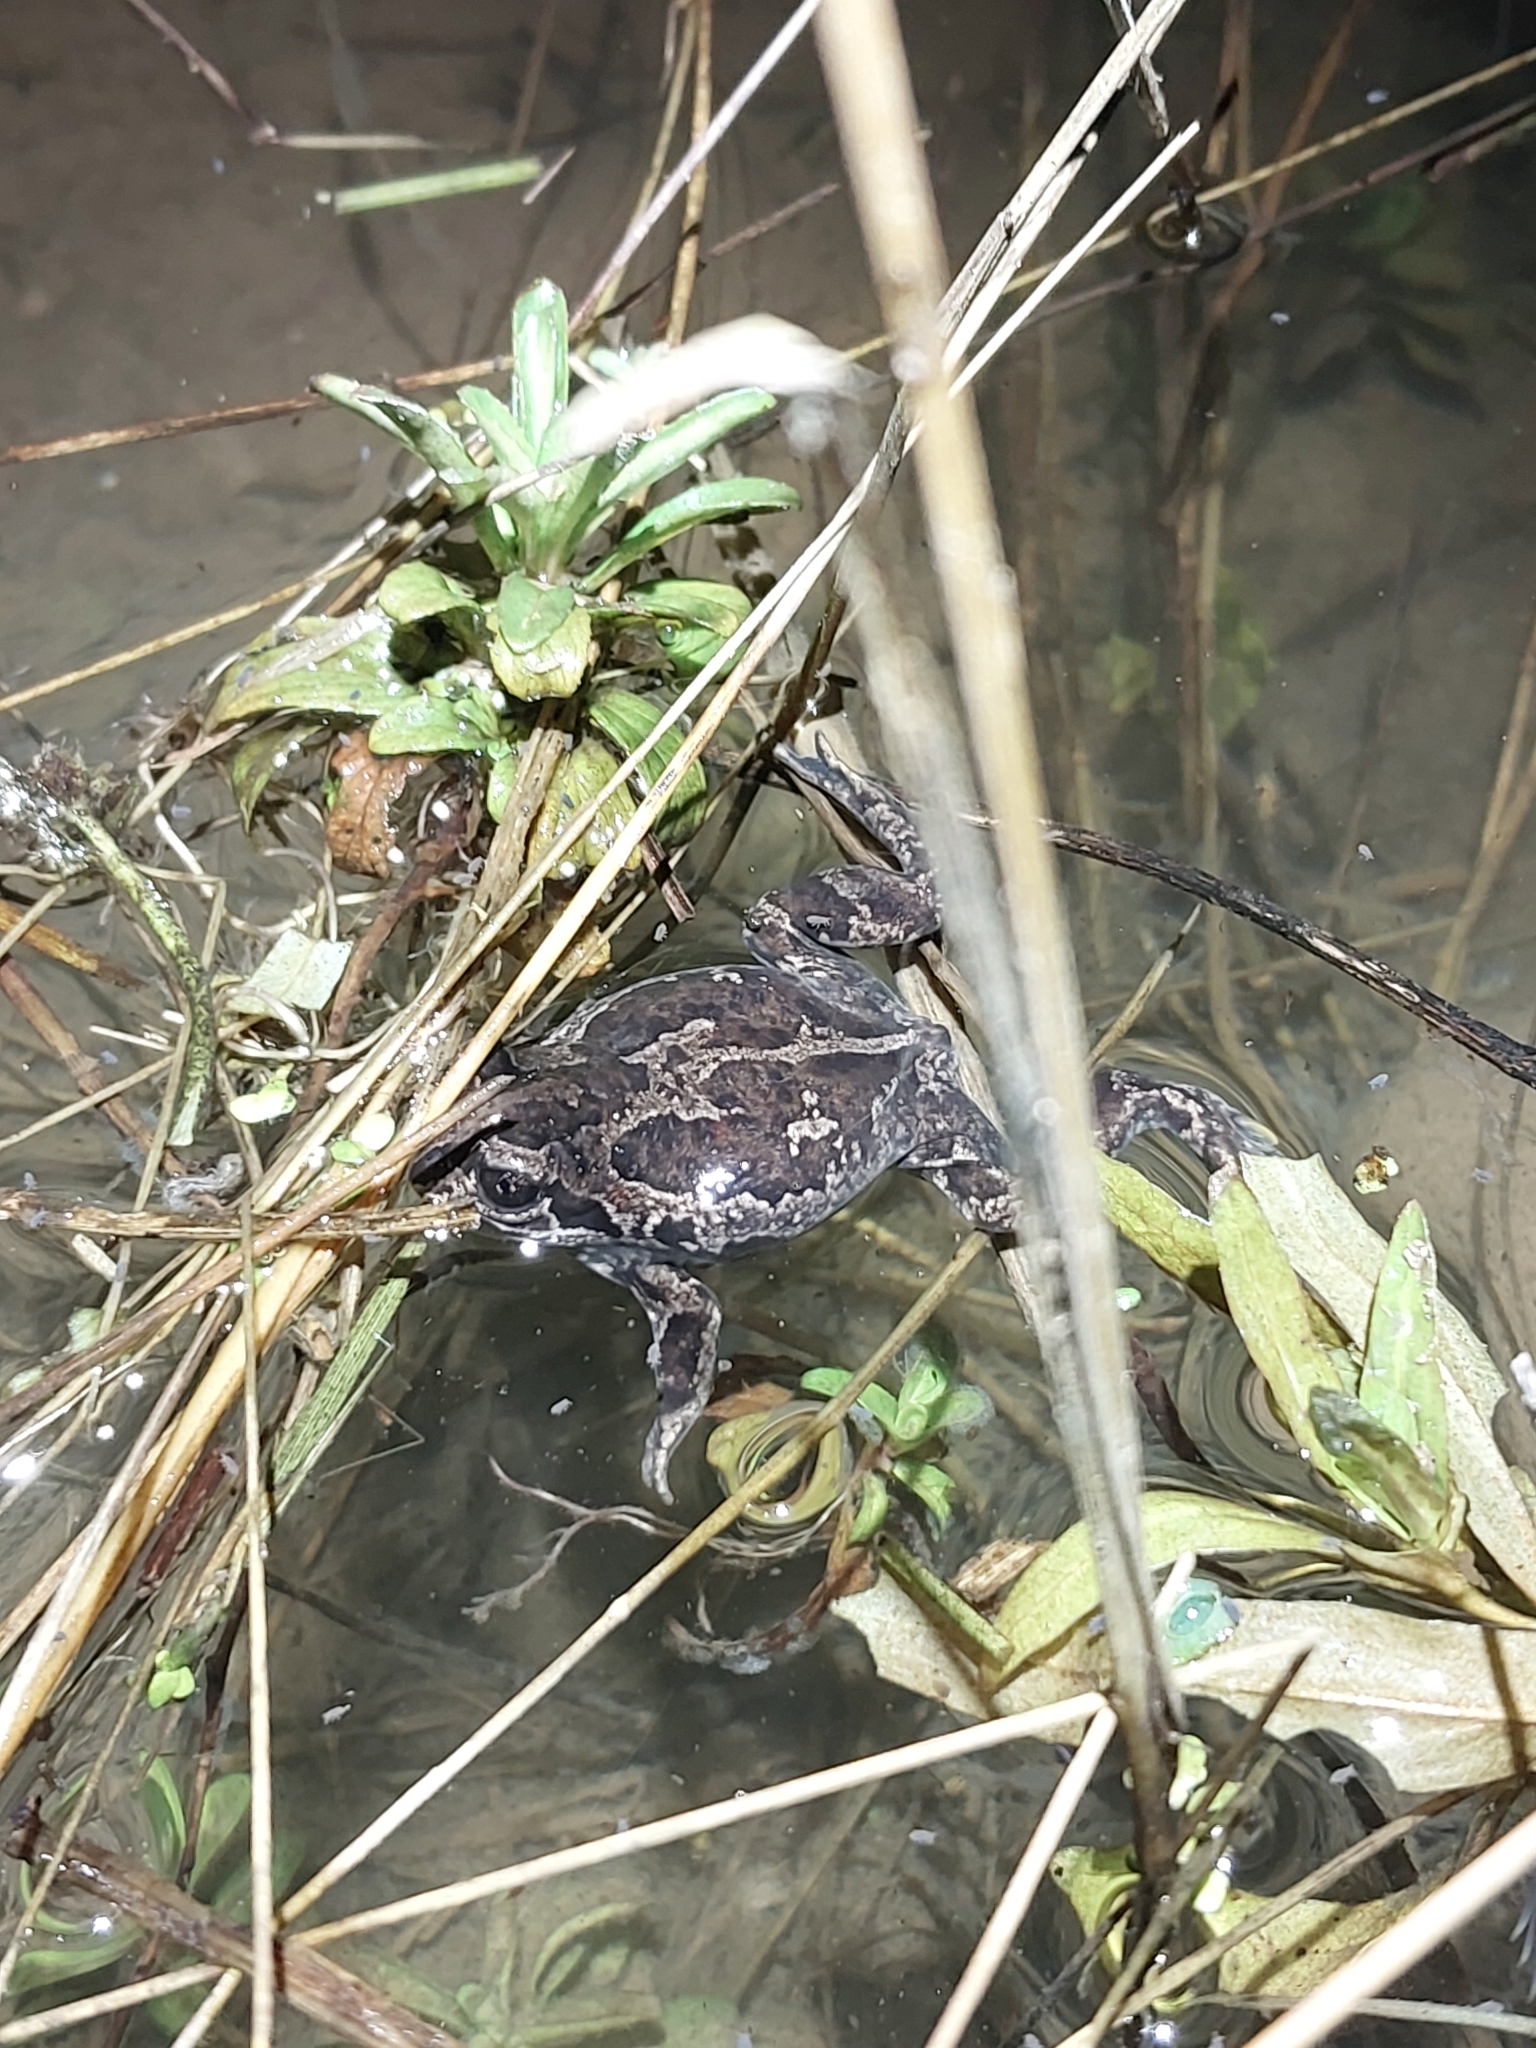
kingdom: Animalia
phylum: Chordata
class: Amphibia
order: Anura
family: Pelobatidae
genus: Pelobates
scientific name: Pelobates fuscus
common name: Common eurasian spadefoot toad
